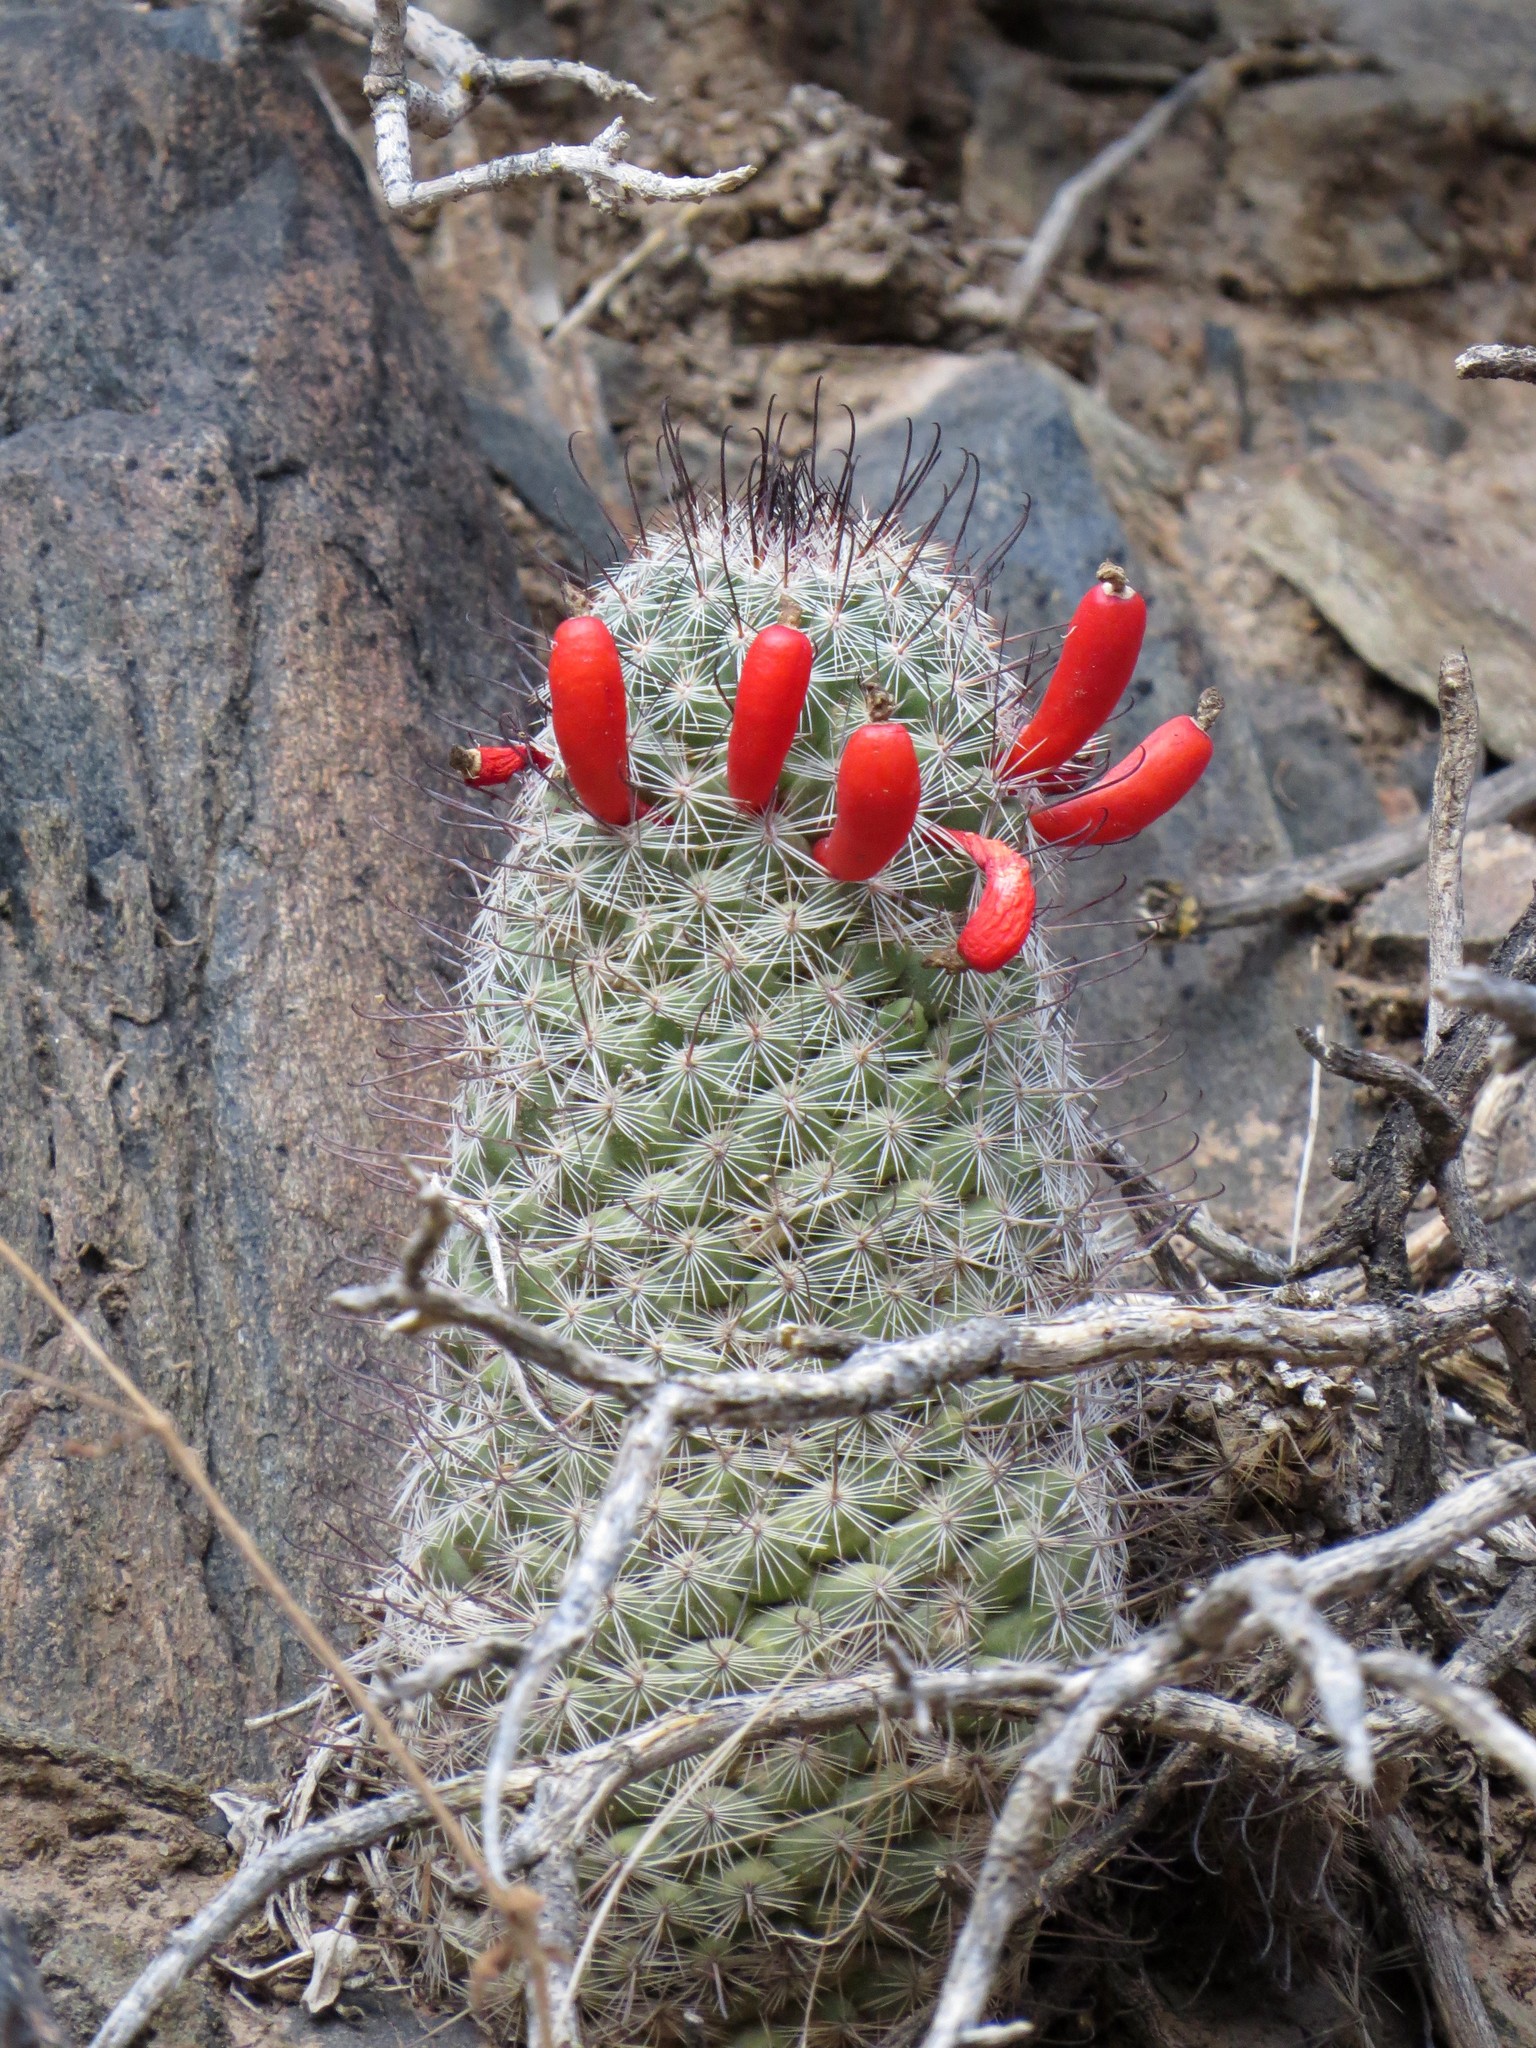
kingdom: Plantae
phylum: Tracheophyta
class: Magnoliopsida
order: Caryophyllales
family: Cactaceae
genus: Cochemiea
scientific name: Cochemiea grahamii
